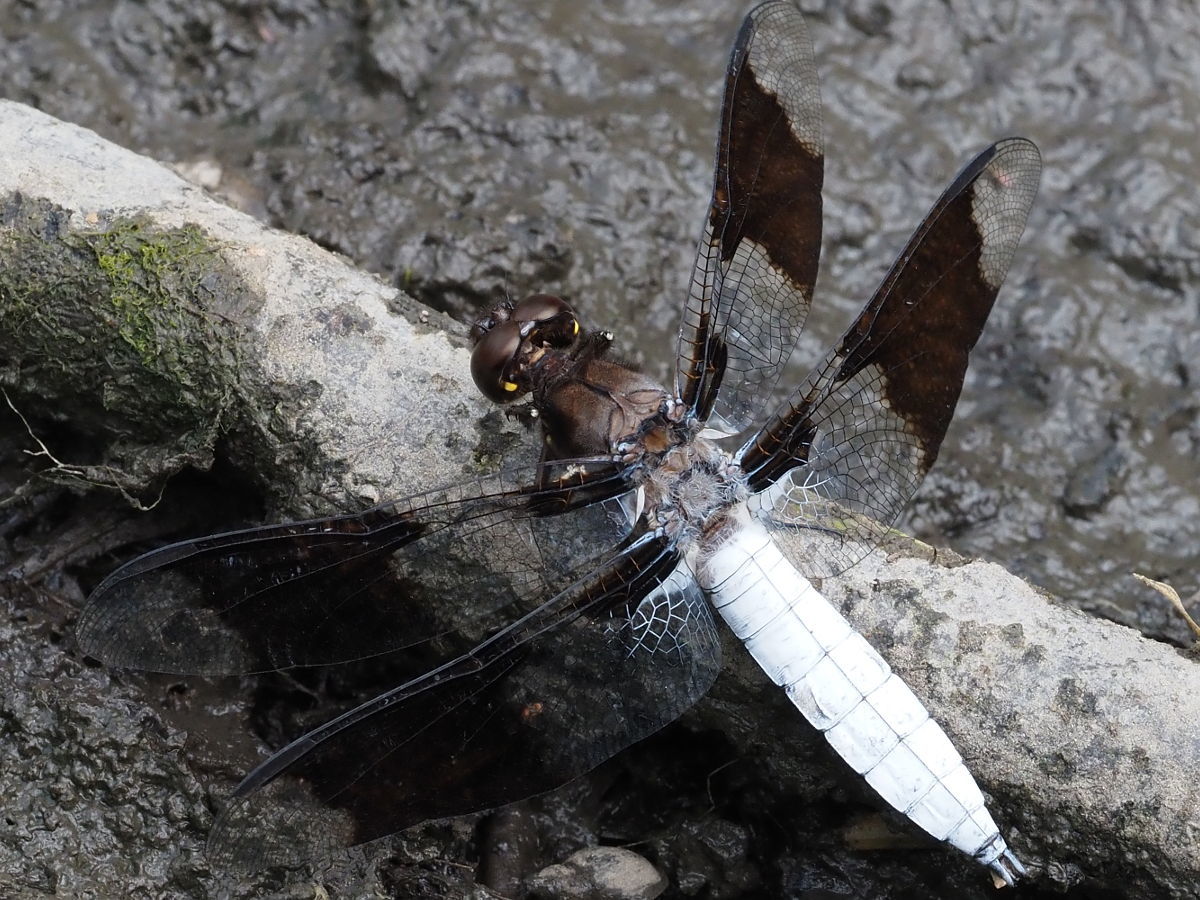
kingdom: Animalia
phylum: Arthropoda
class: Insecta
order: Odonata
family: Libellulidae
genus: Plathemis
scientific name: Plathemis lydia
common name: Common whitetail
